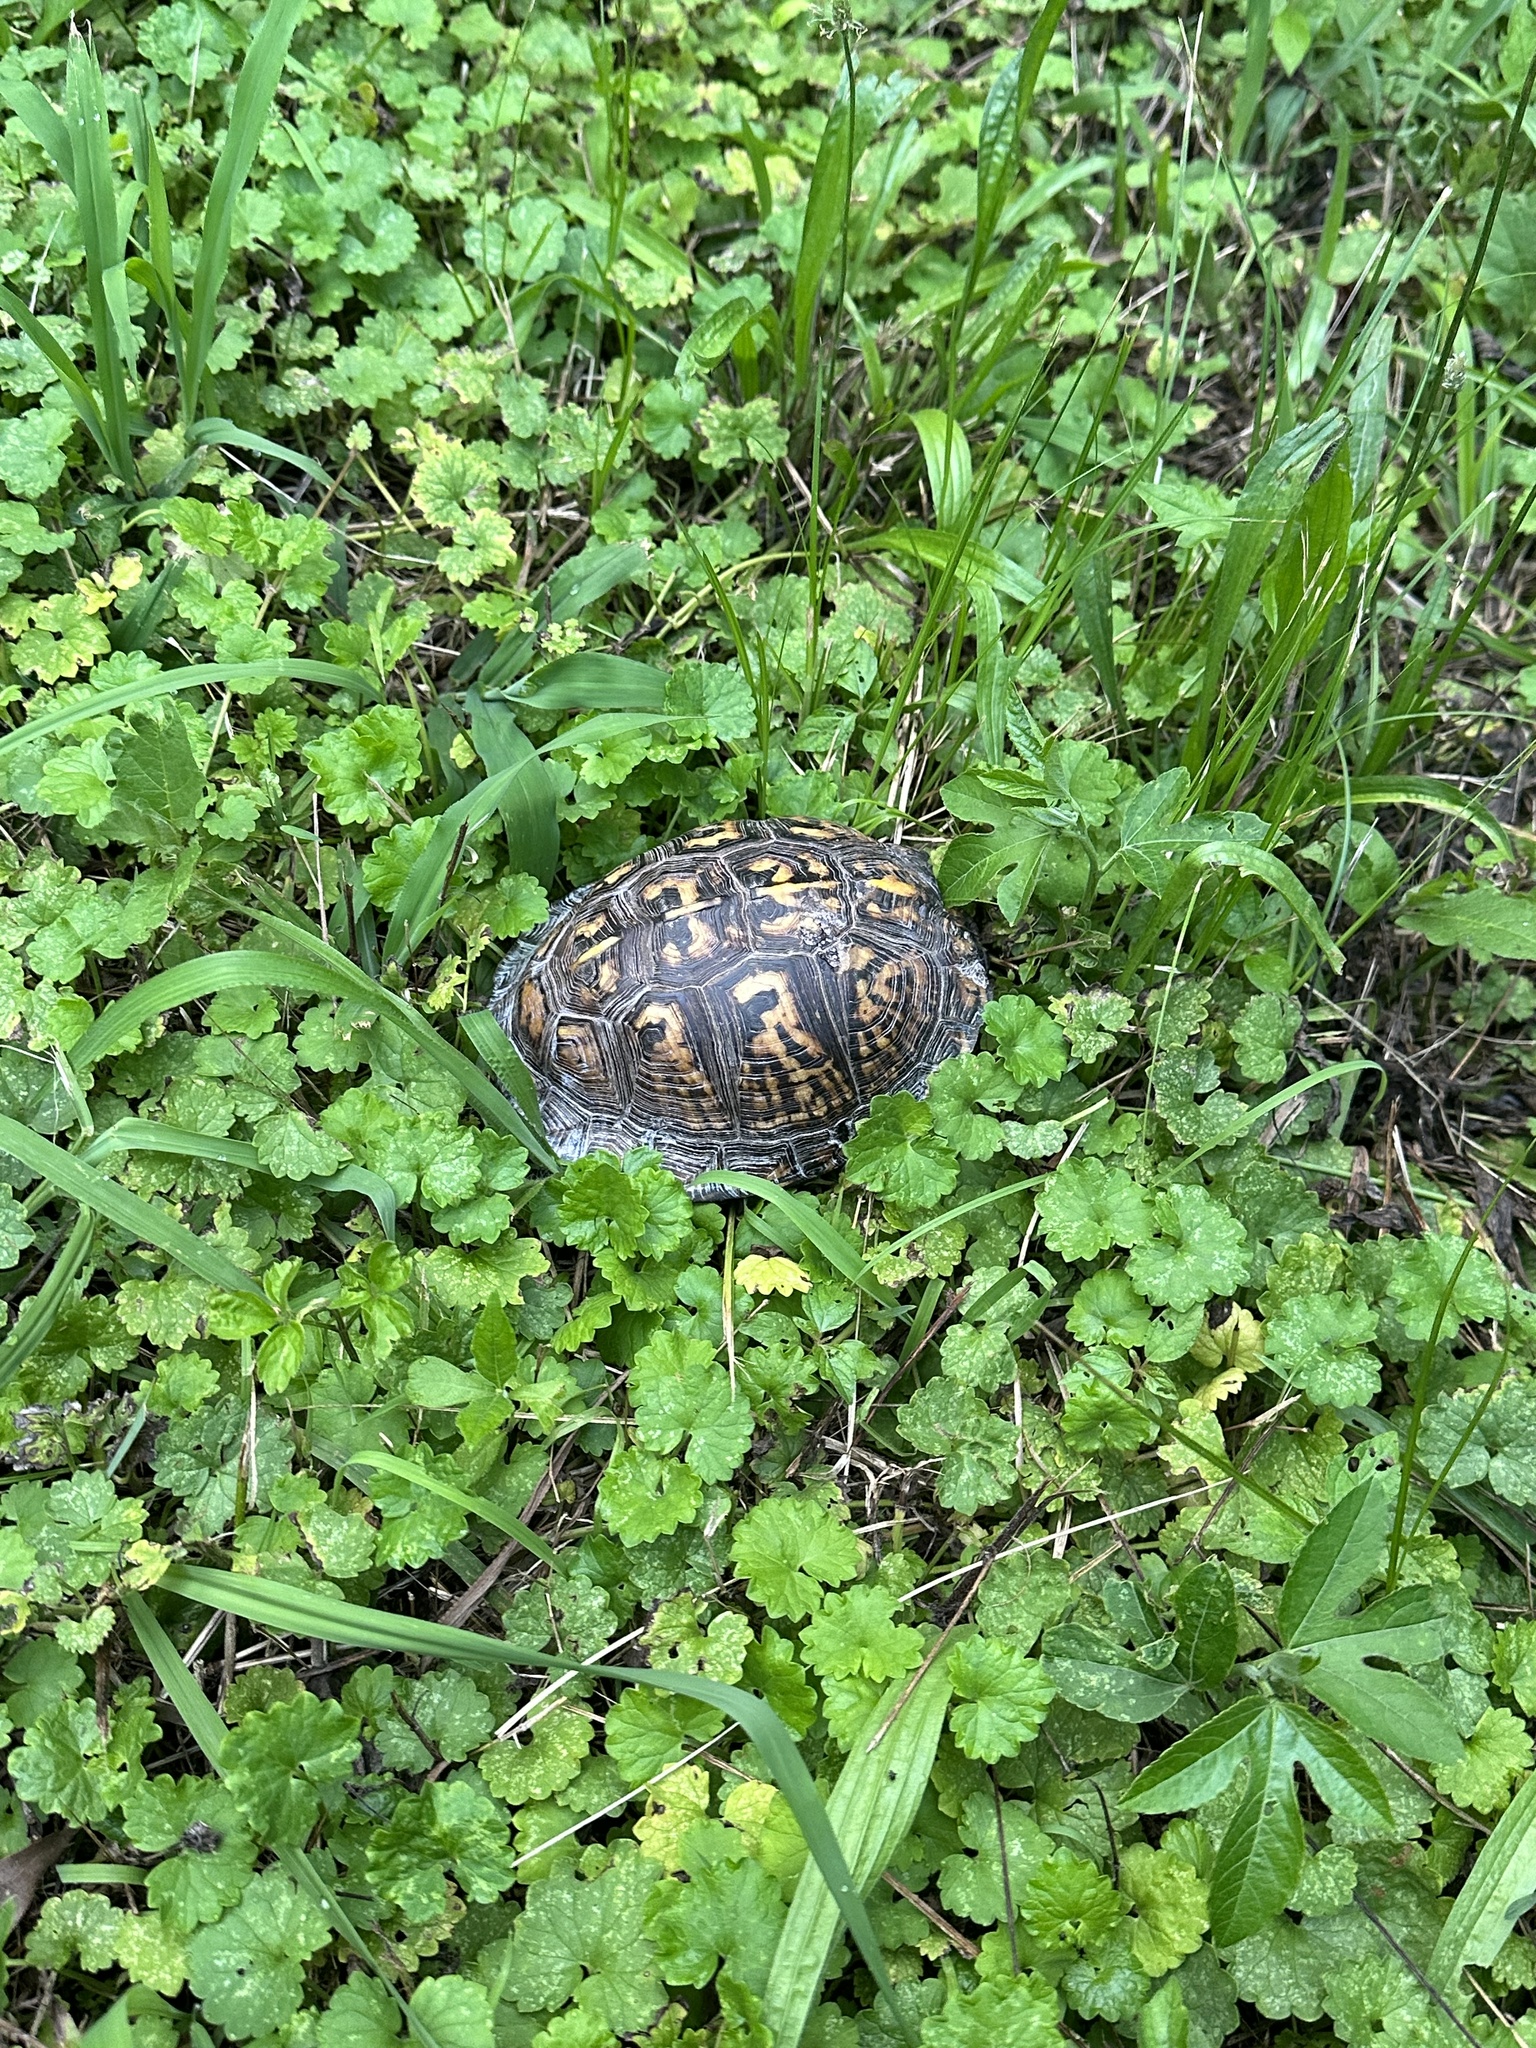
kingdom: Animalia
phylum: Chordata
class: Testudines
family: Emydidae
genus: Terrapene
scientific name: Terrapene carolina
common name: Common box turtle
